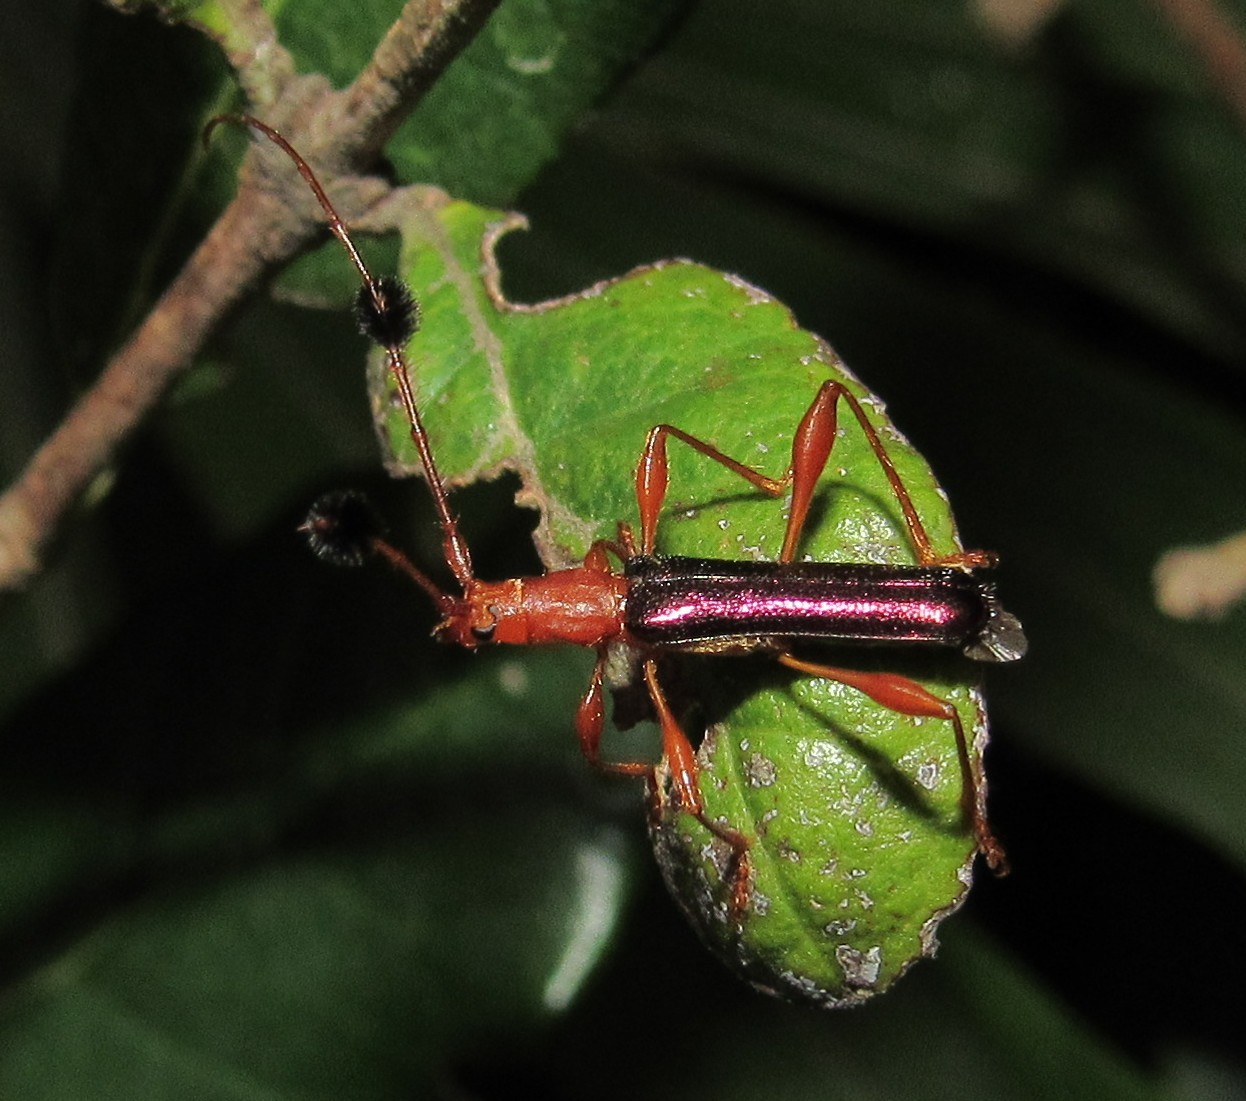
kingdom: Animalia
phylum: Arthropoda
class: Insecta
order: Coleoptera
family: Cerambycidae
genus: Unxia
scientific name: Unxia gracilior
